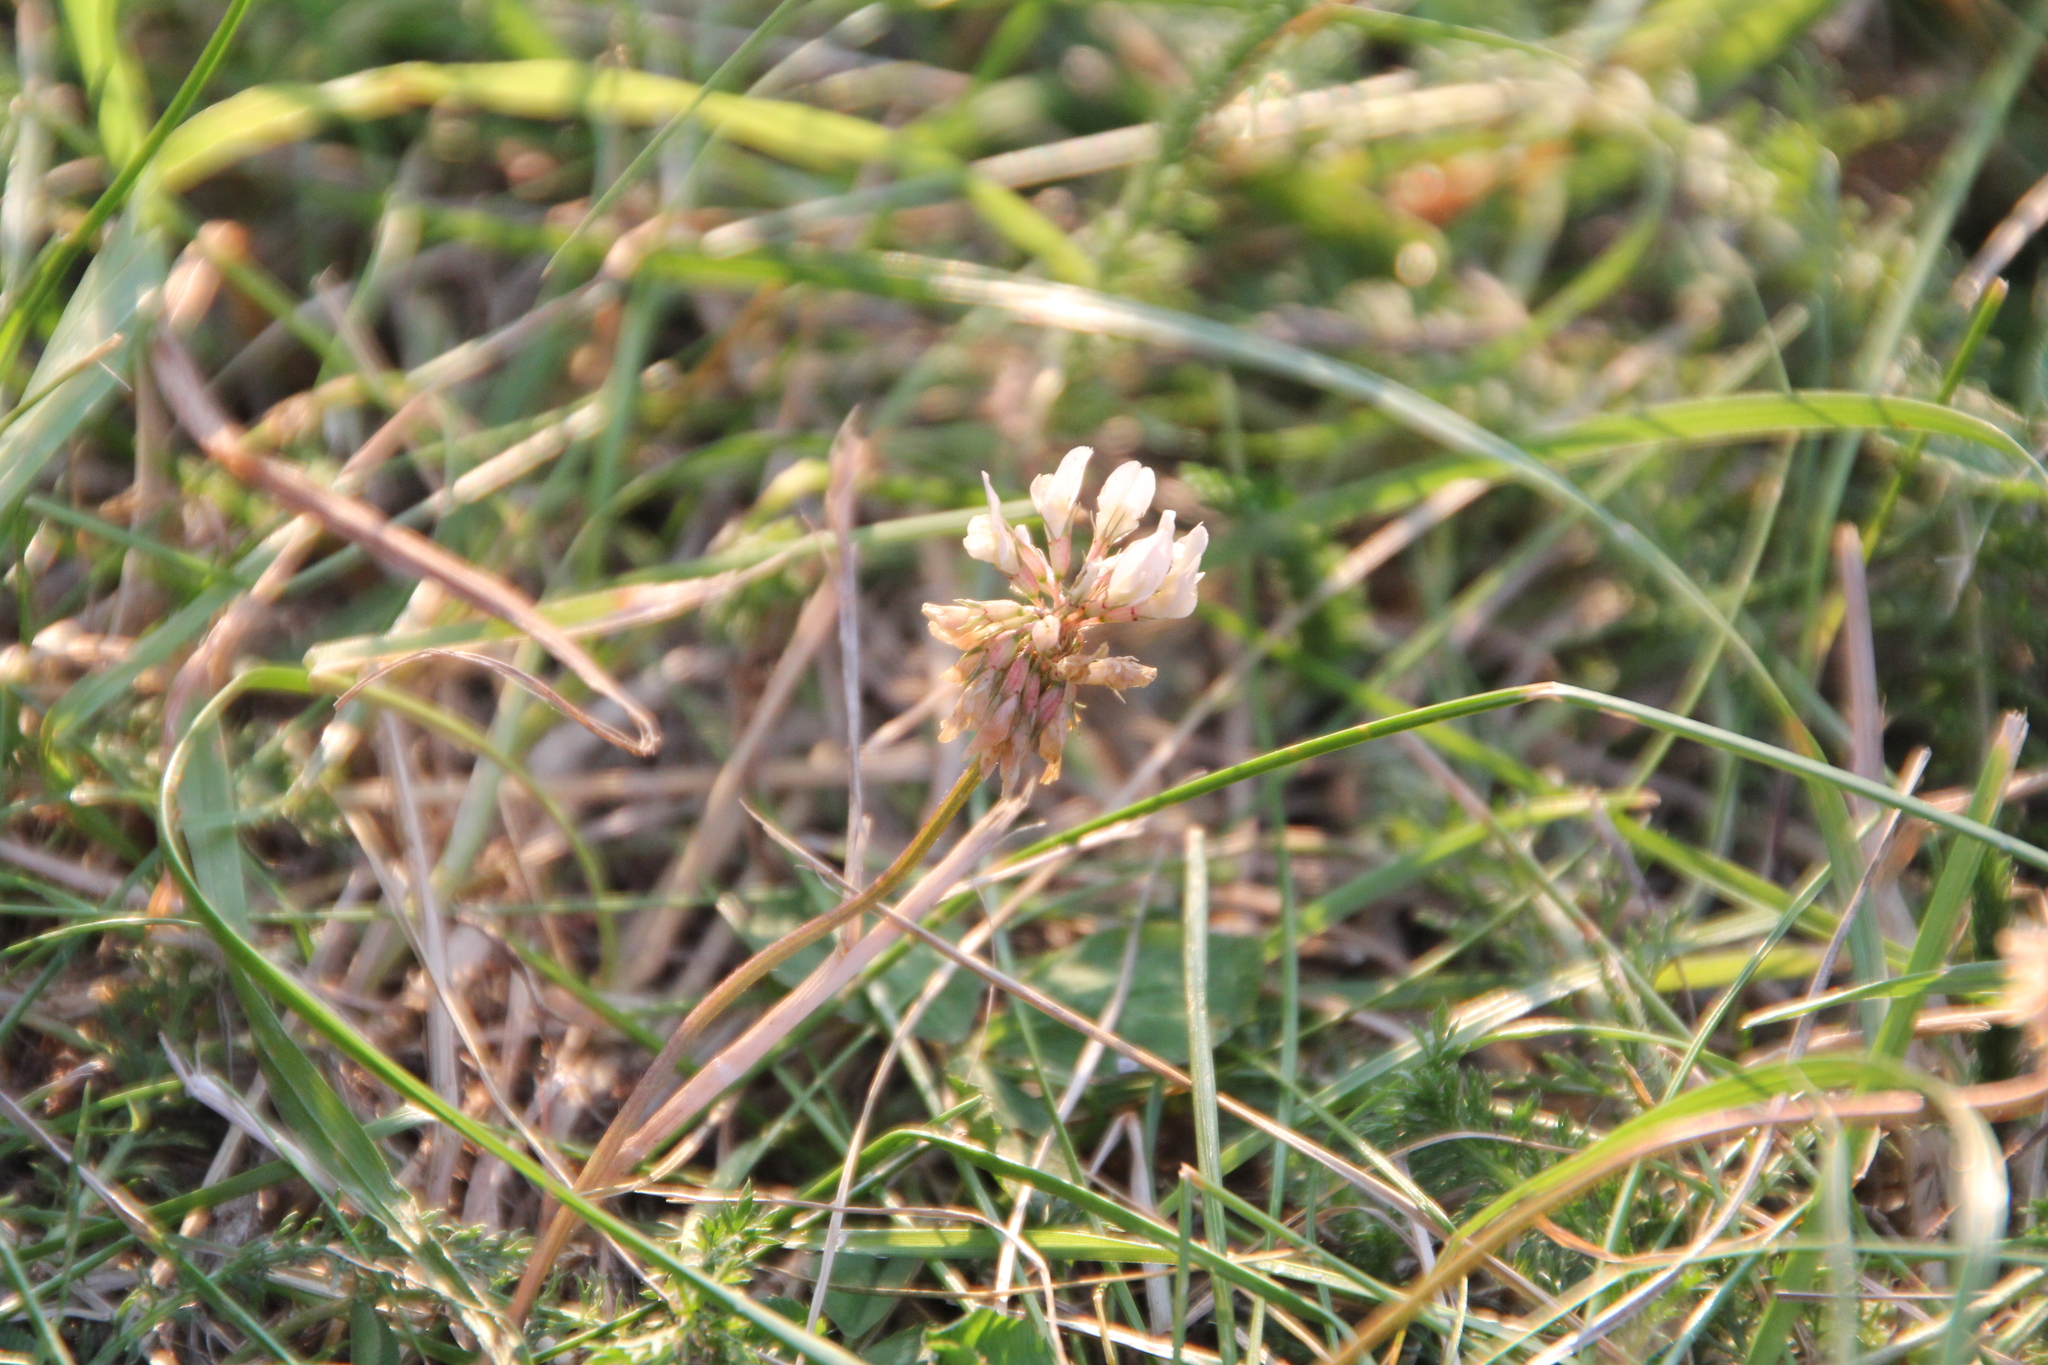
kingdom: Plantae
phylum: Tracheophyta
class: Magnoliopsida
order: Fabales
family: Fabaceae
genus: Trifolium
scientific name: Trifolium repens
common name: White clover
